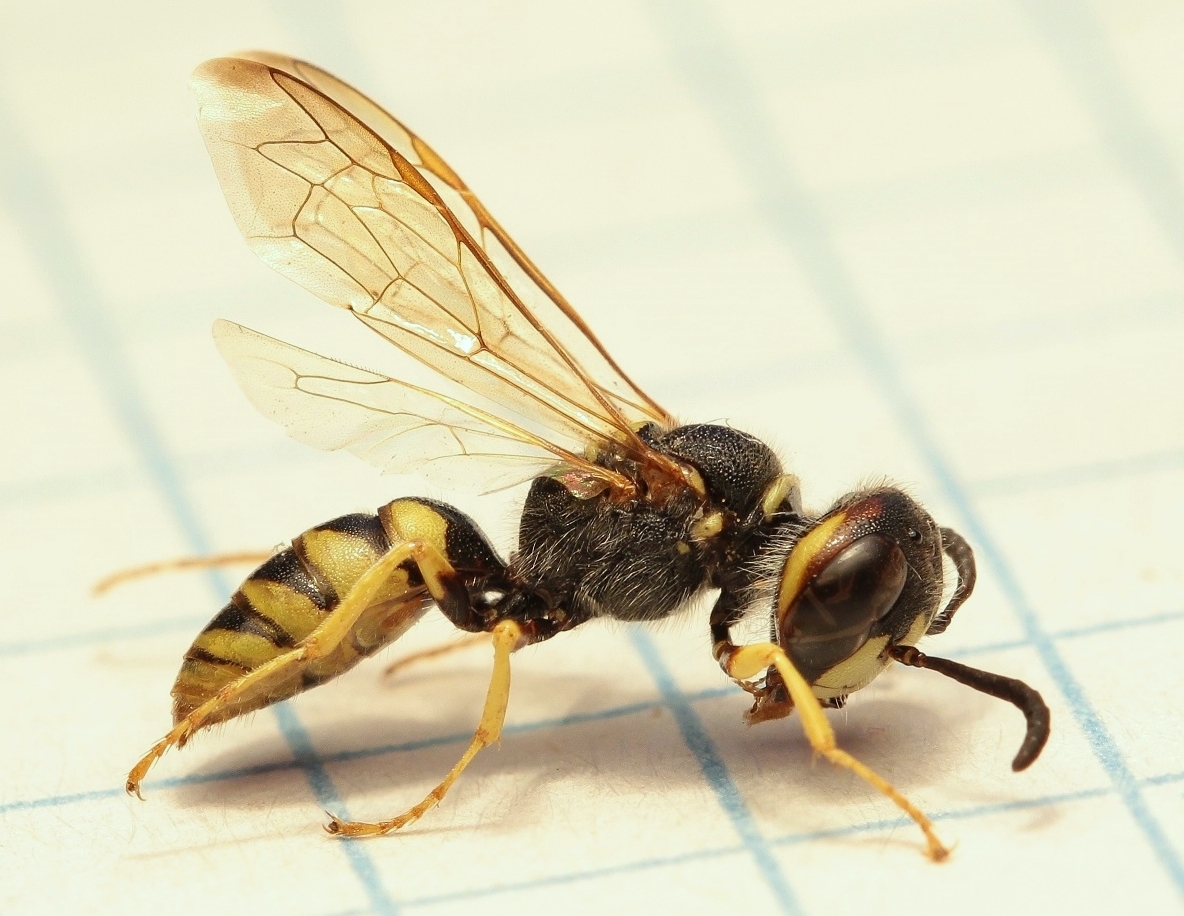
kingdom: Animalia
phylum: Arthropoda
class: Insecta
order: Hymenoptera
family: Crabronidae
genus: Philanthus
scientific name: Philanthus triangulum
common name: Bee wolf
